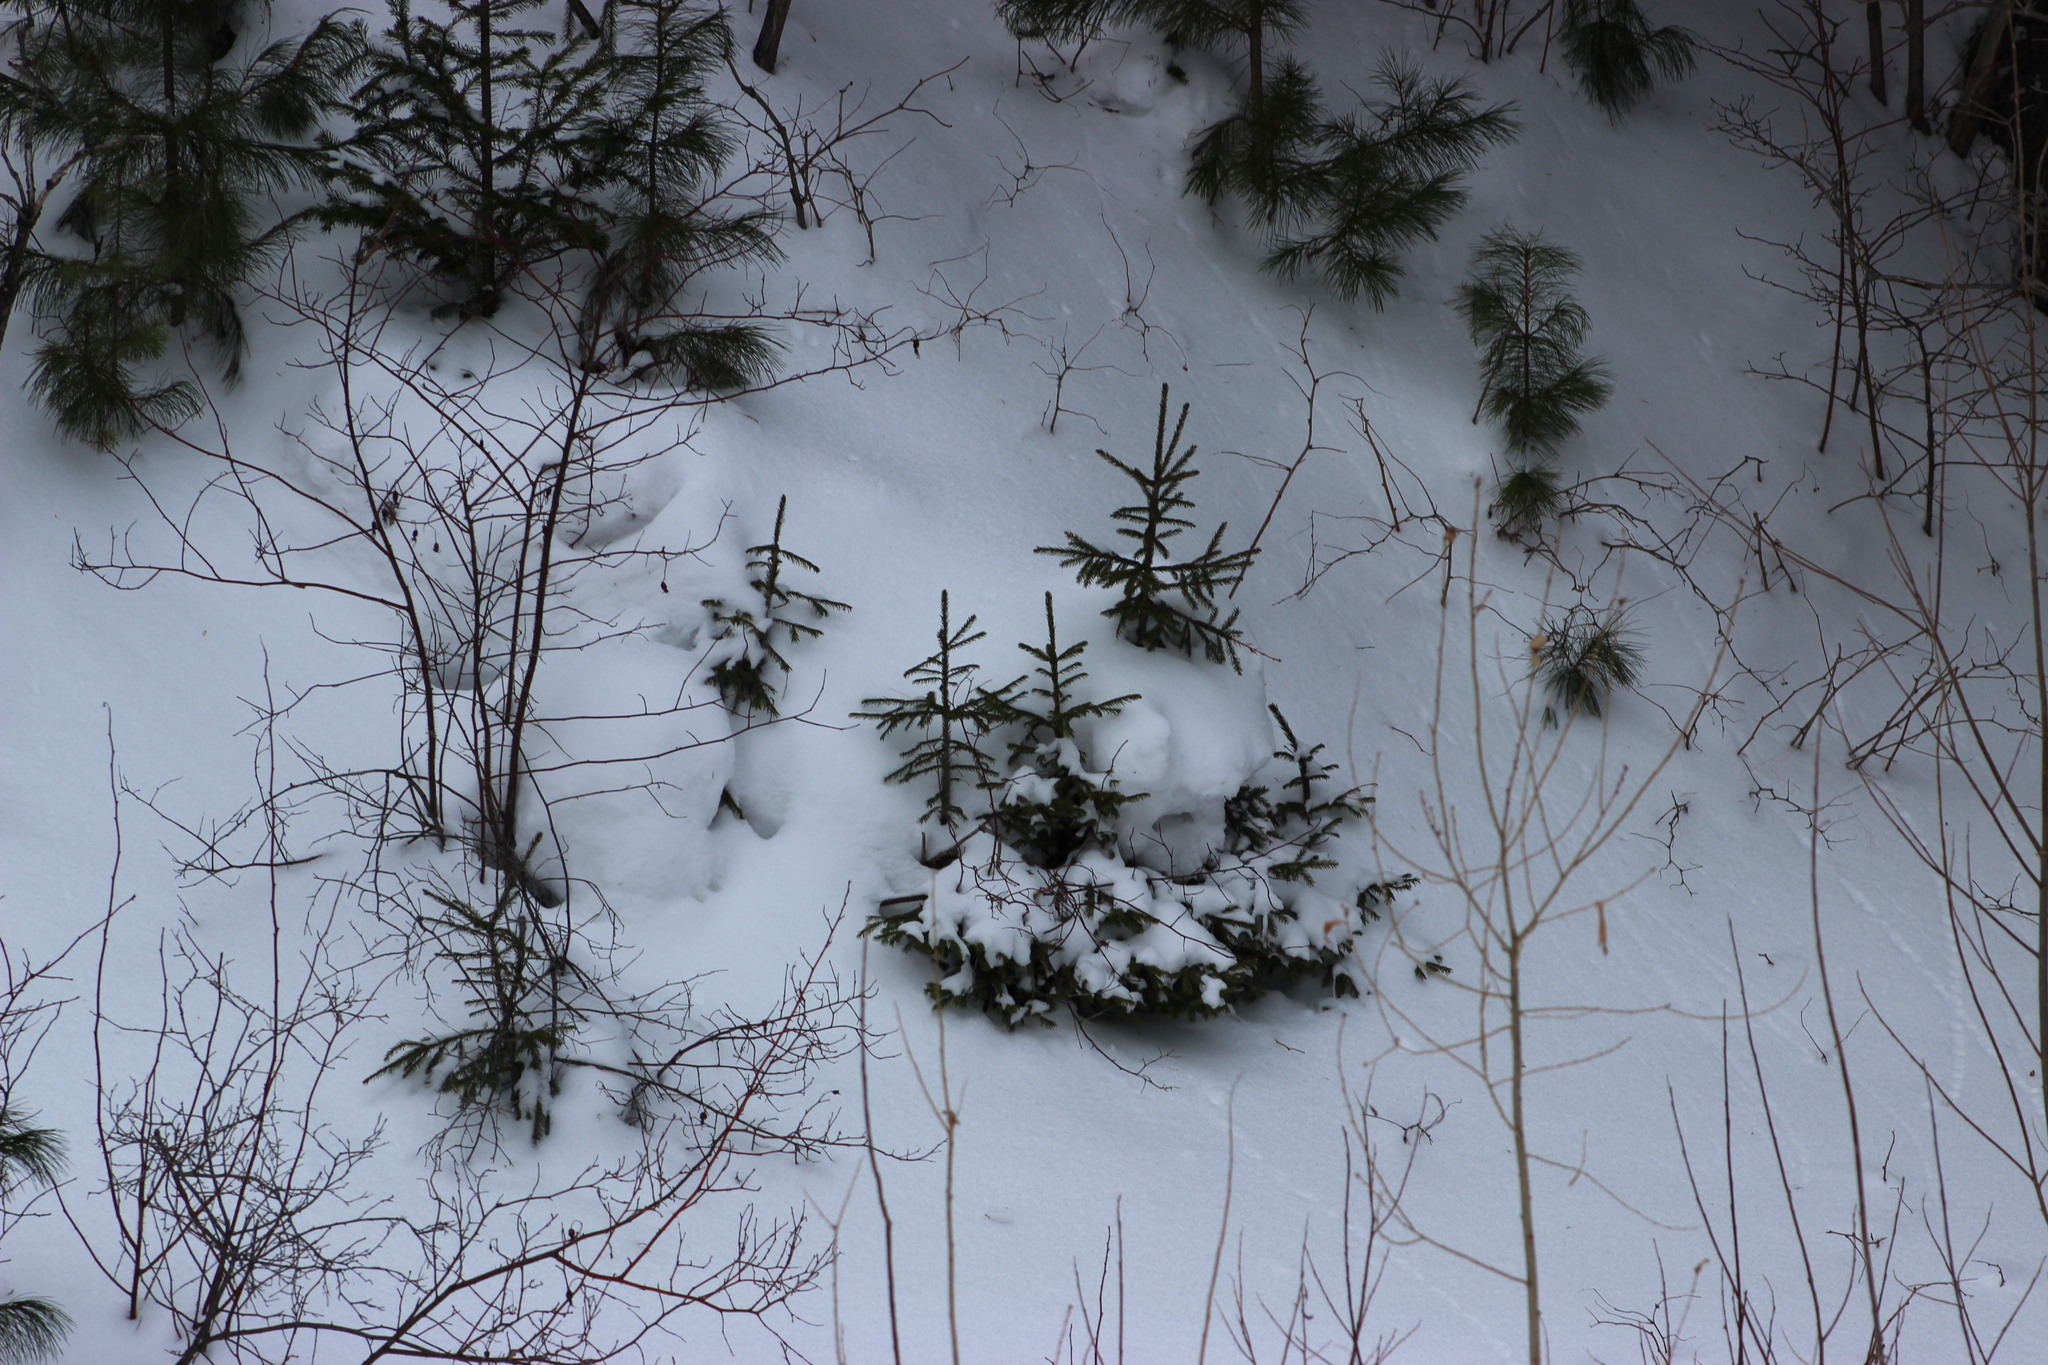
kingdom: Plantae
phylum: Tracheophyta
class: Pinopsida
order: Pinales
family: Pinaceae
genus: Picea
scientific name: Picea obovata
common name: Siberian spruce
